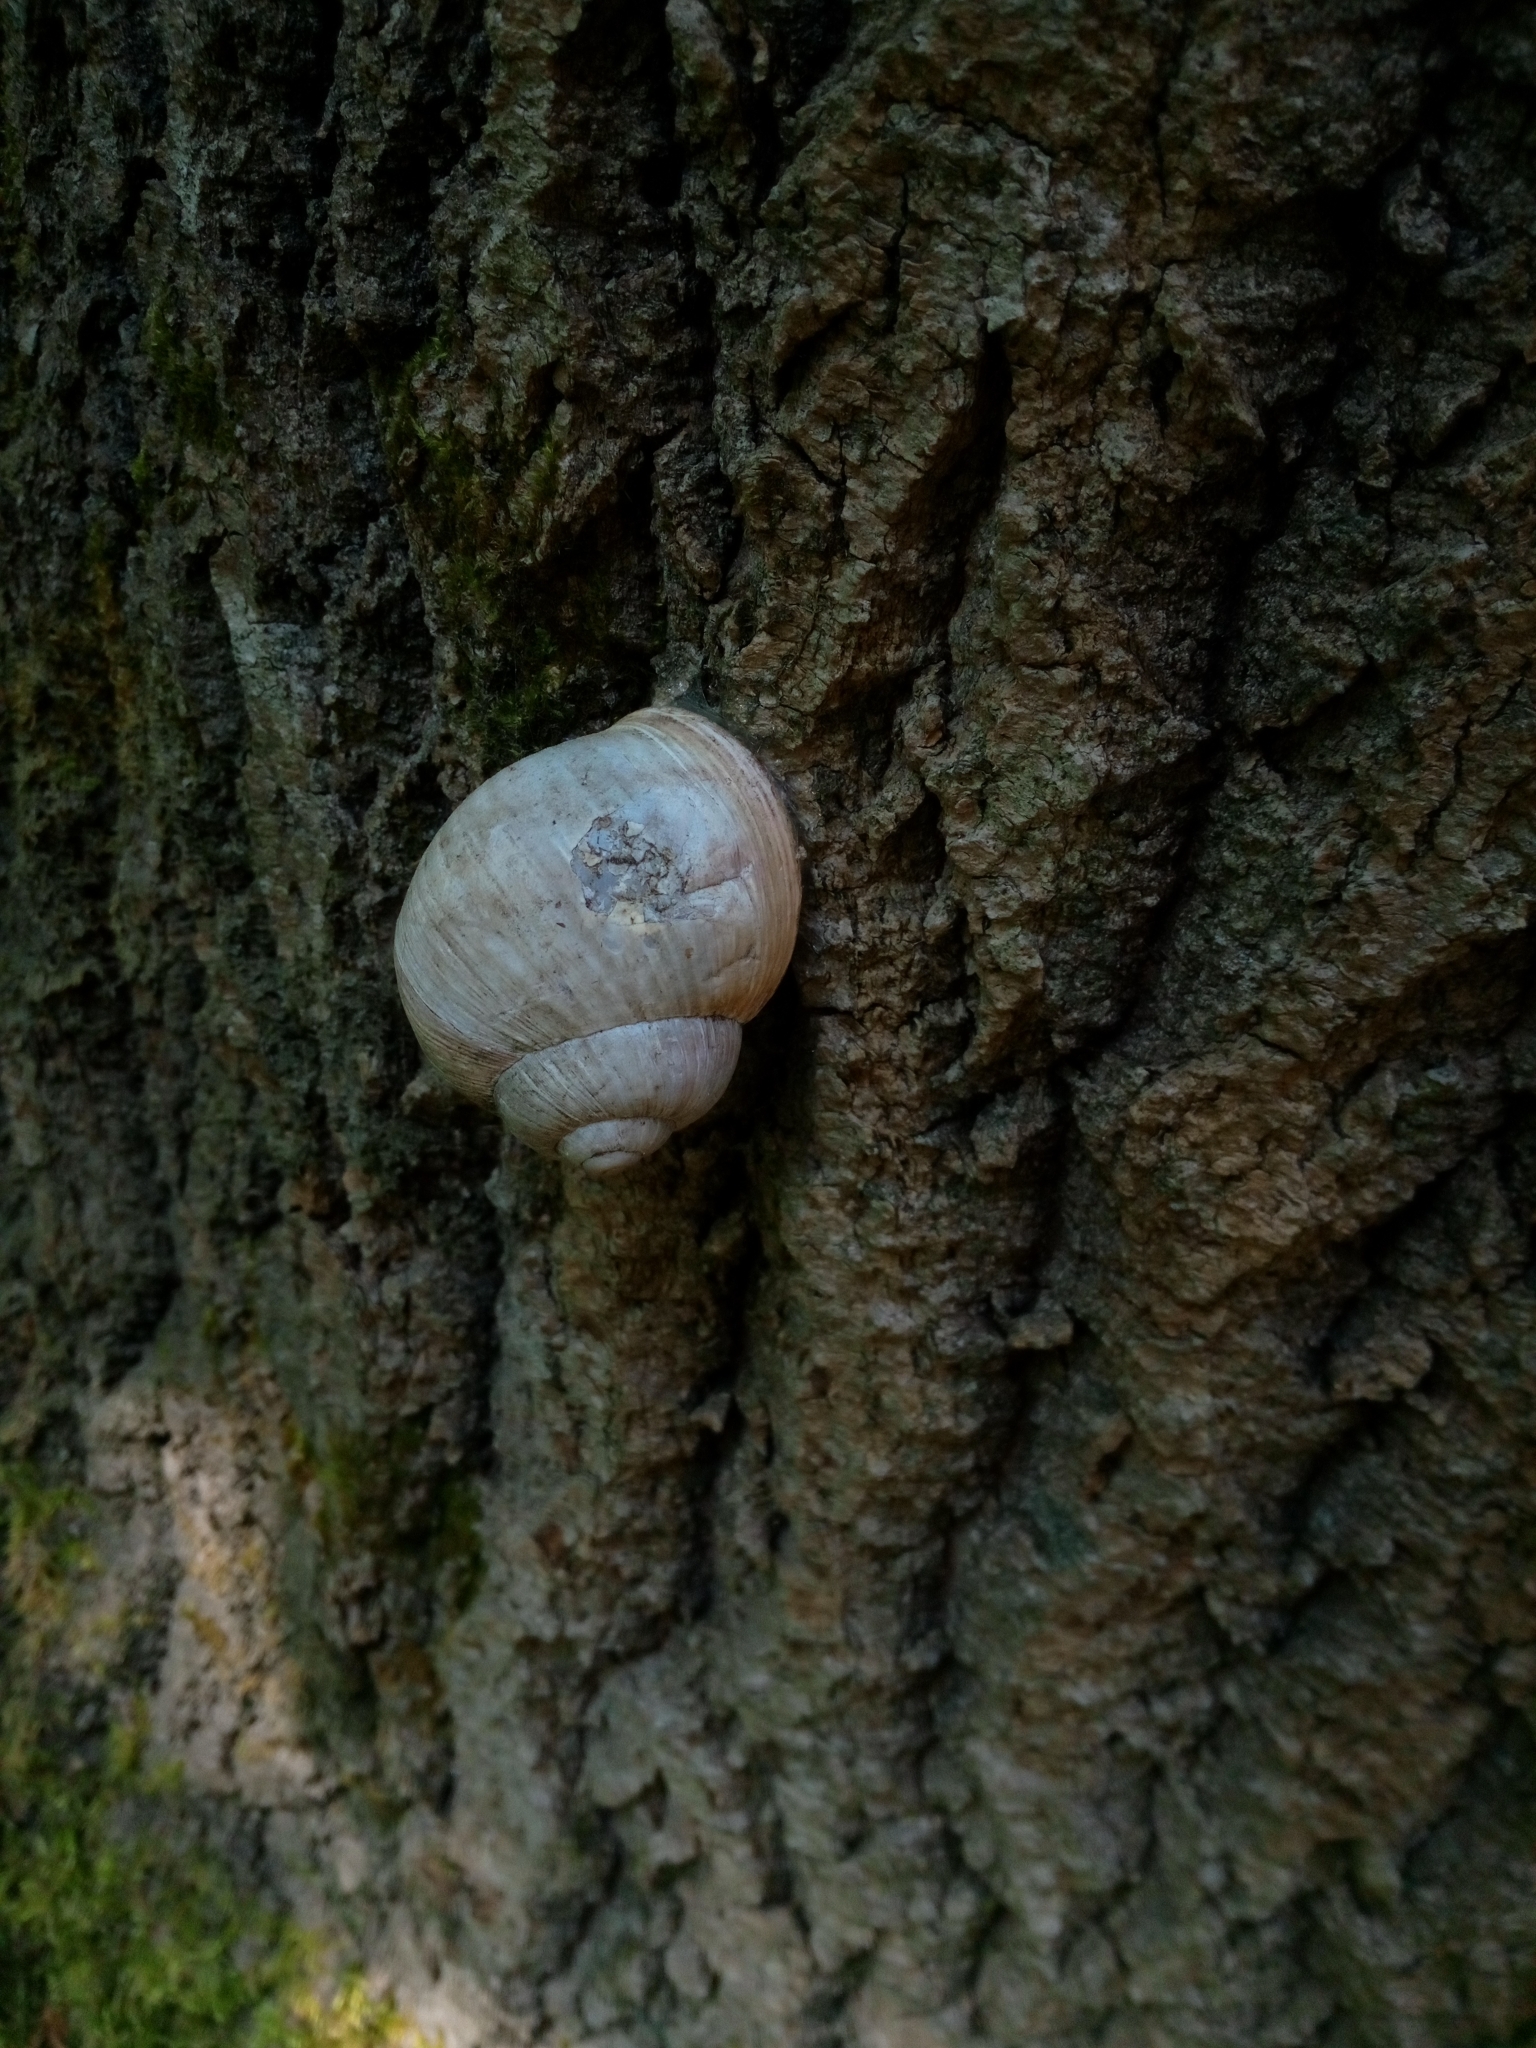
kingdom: Animalia
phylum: Mollusca
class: Gastropoda
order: Stylommatophora
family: Helicidae
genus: Helix
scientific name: Helix pomatia
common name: Roman snail
